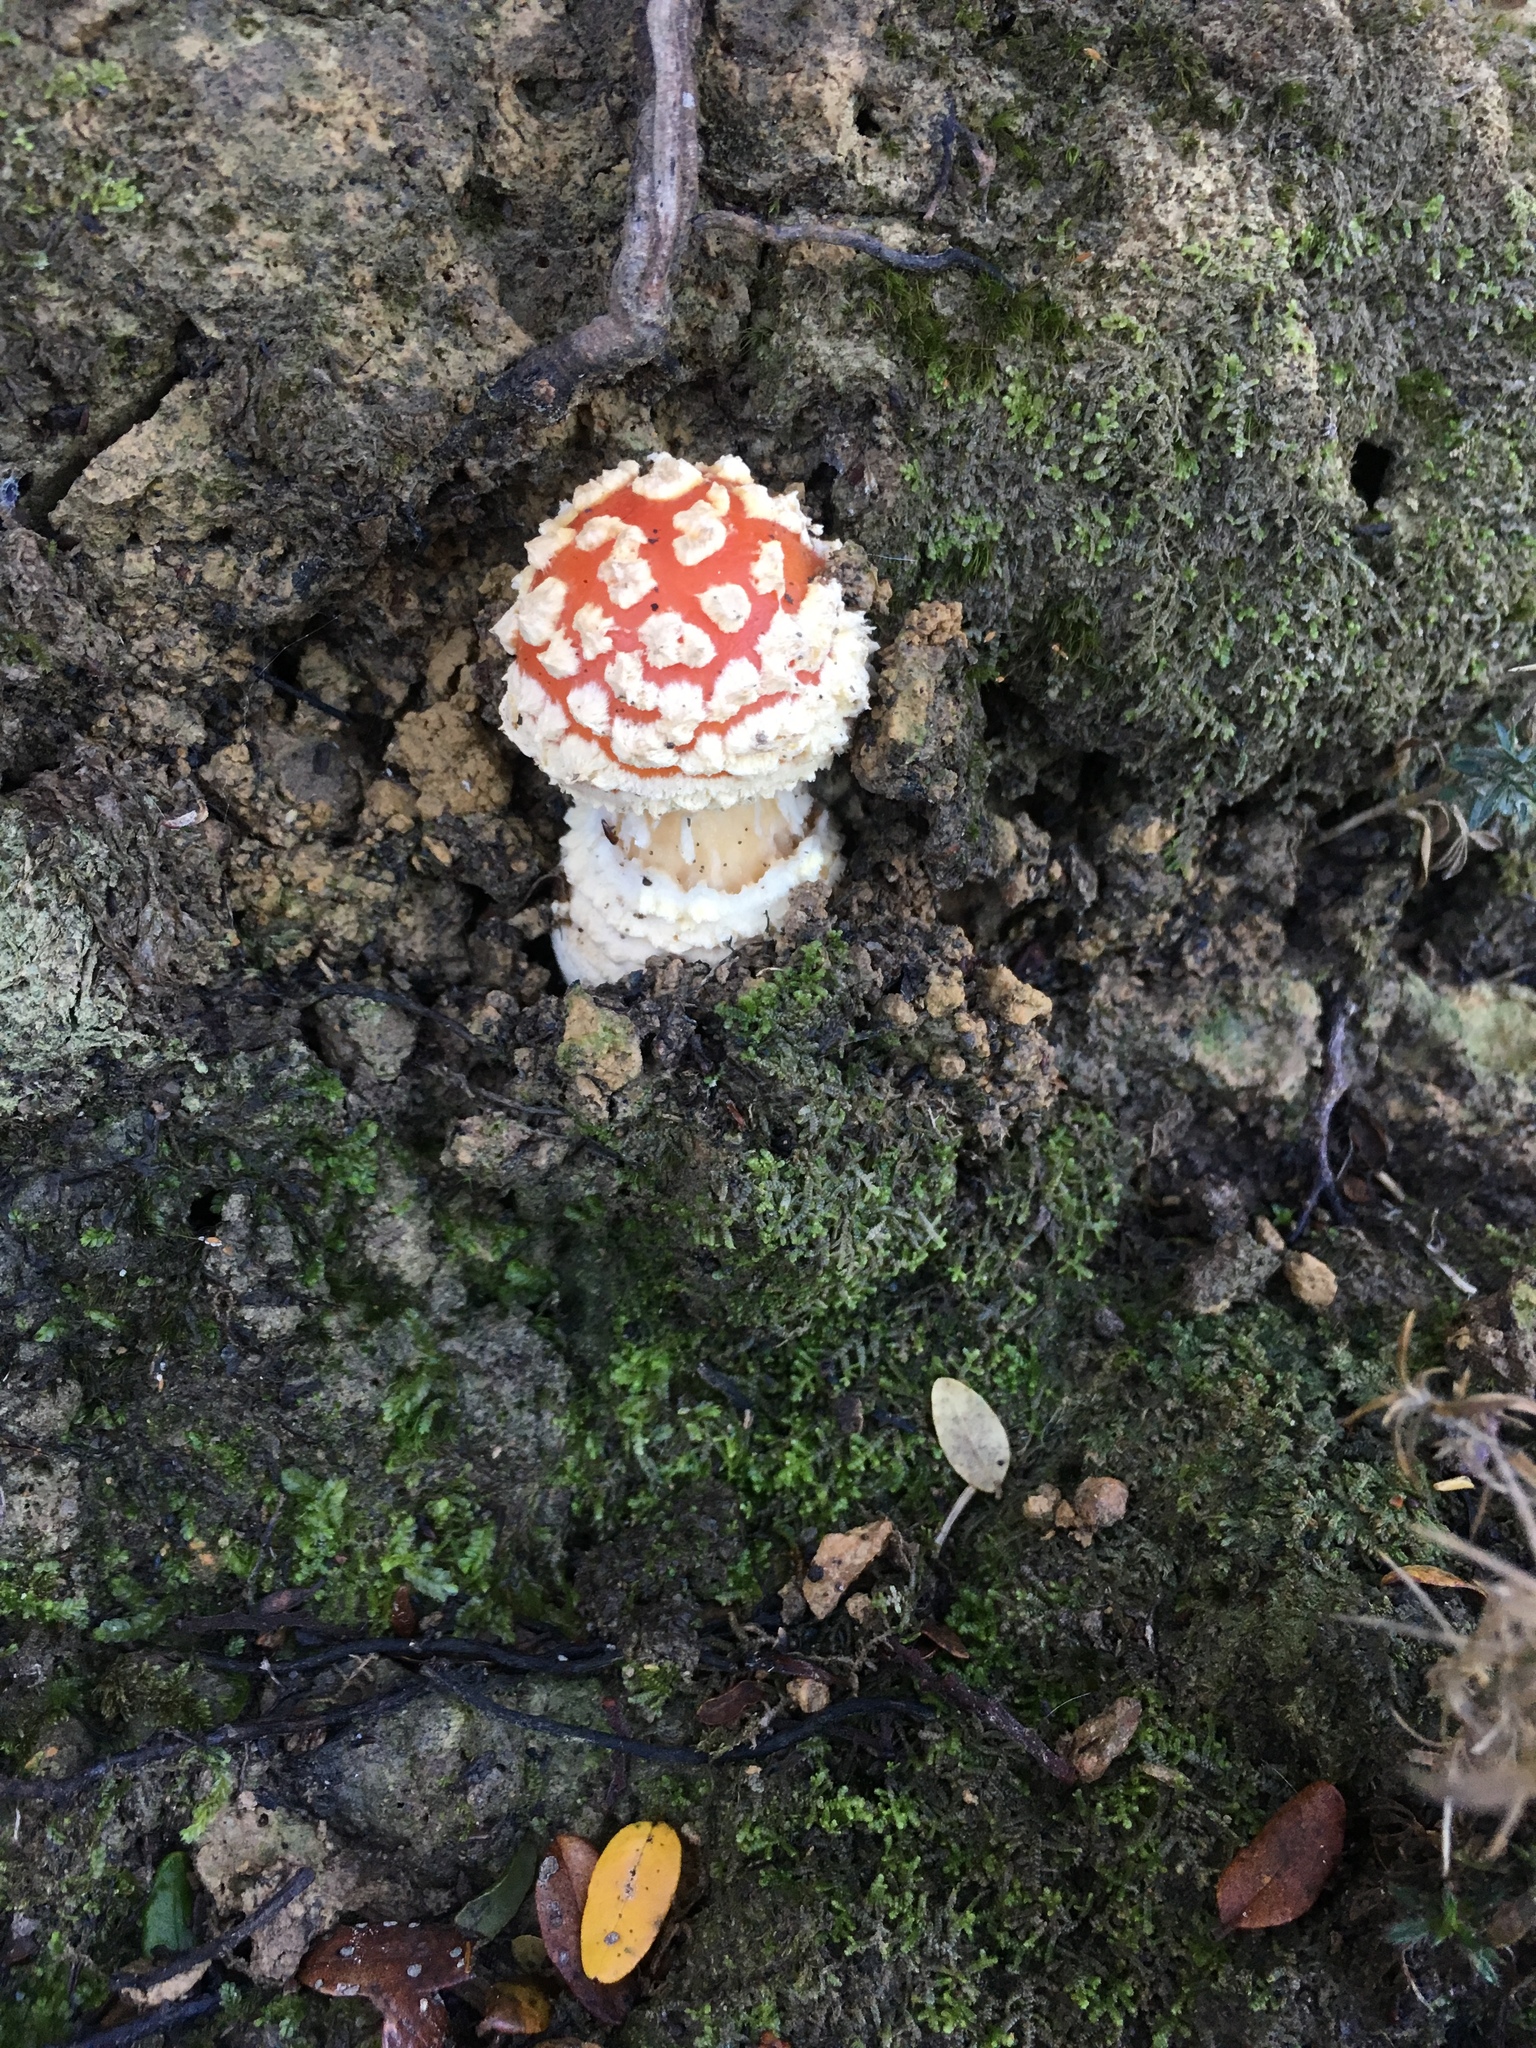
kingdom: Fungi
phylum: Basidiomycota
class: Agaricomycetes
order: Agaricales
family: Amanitaceae
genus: Amanita
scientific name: Amanita muscaria
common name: Fly agaric
